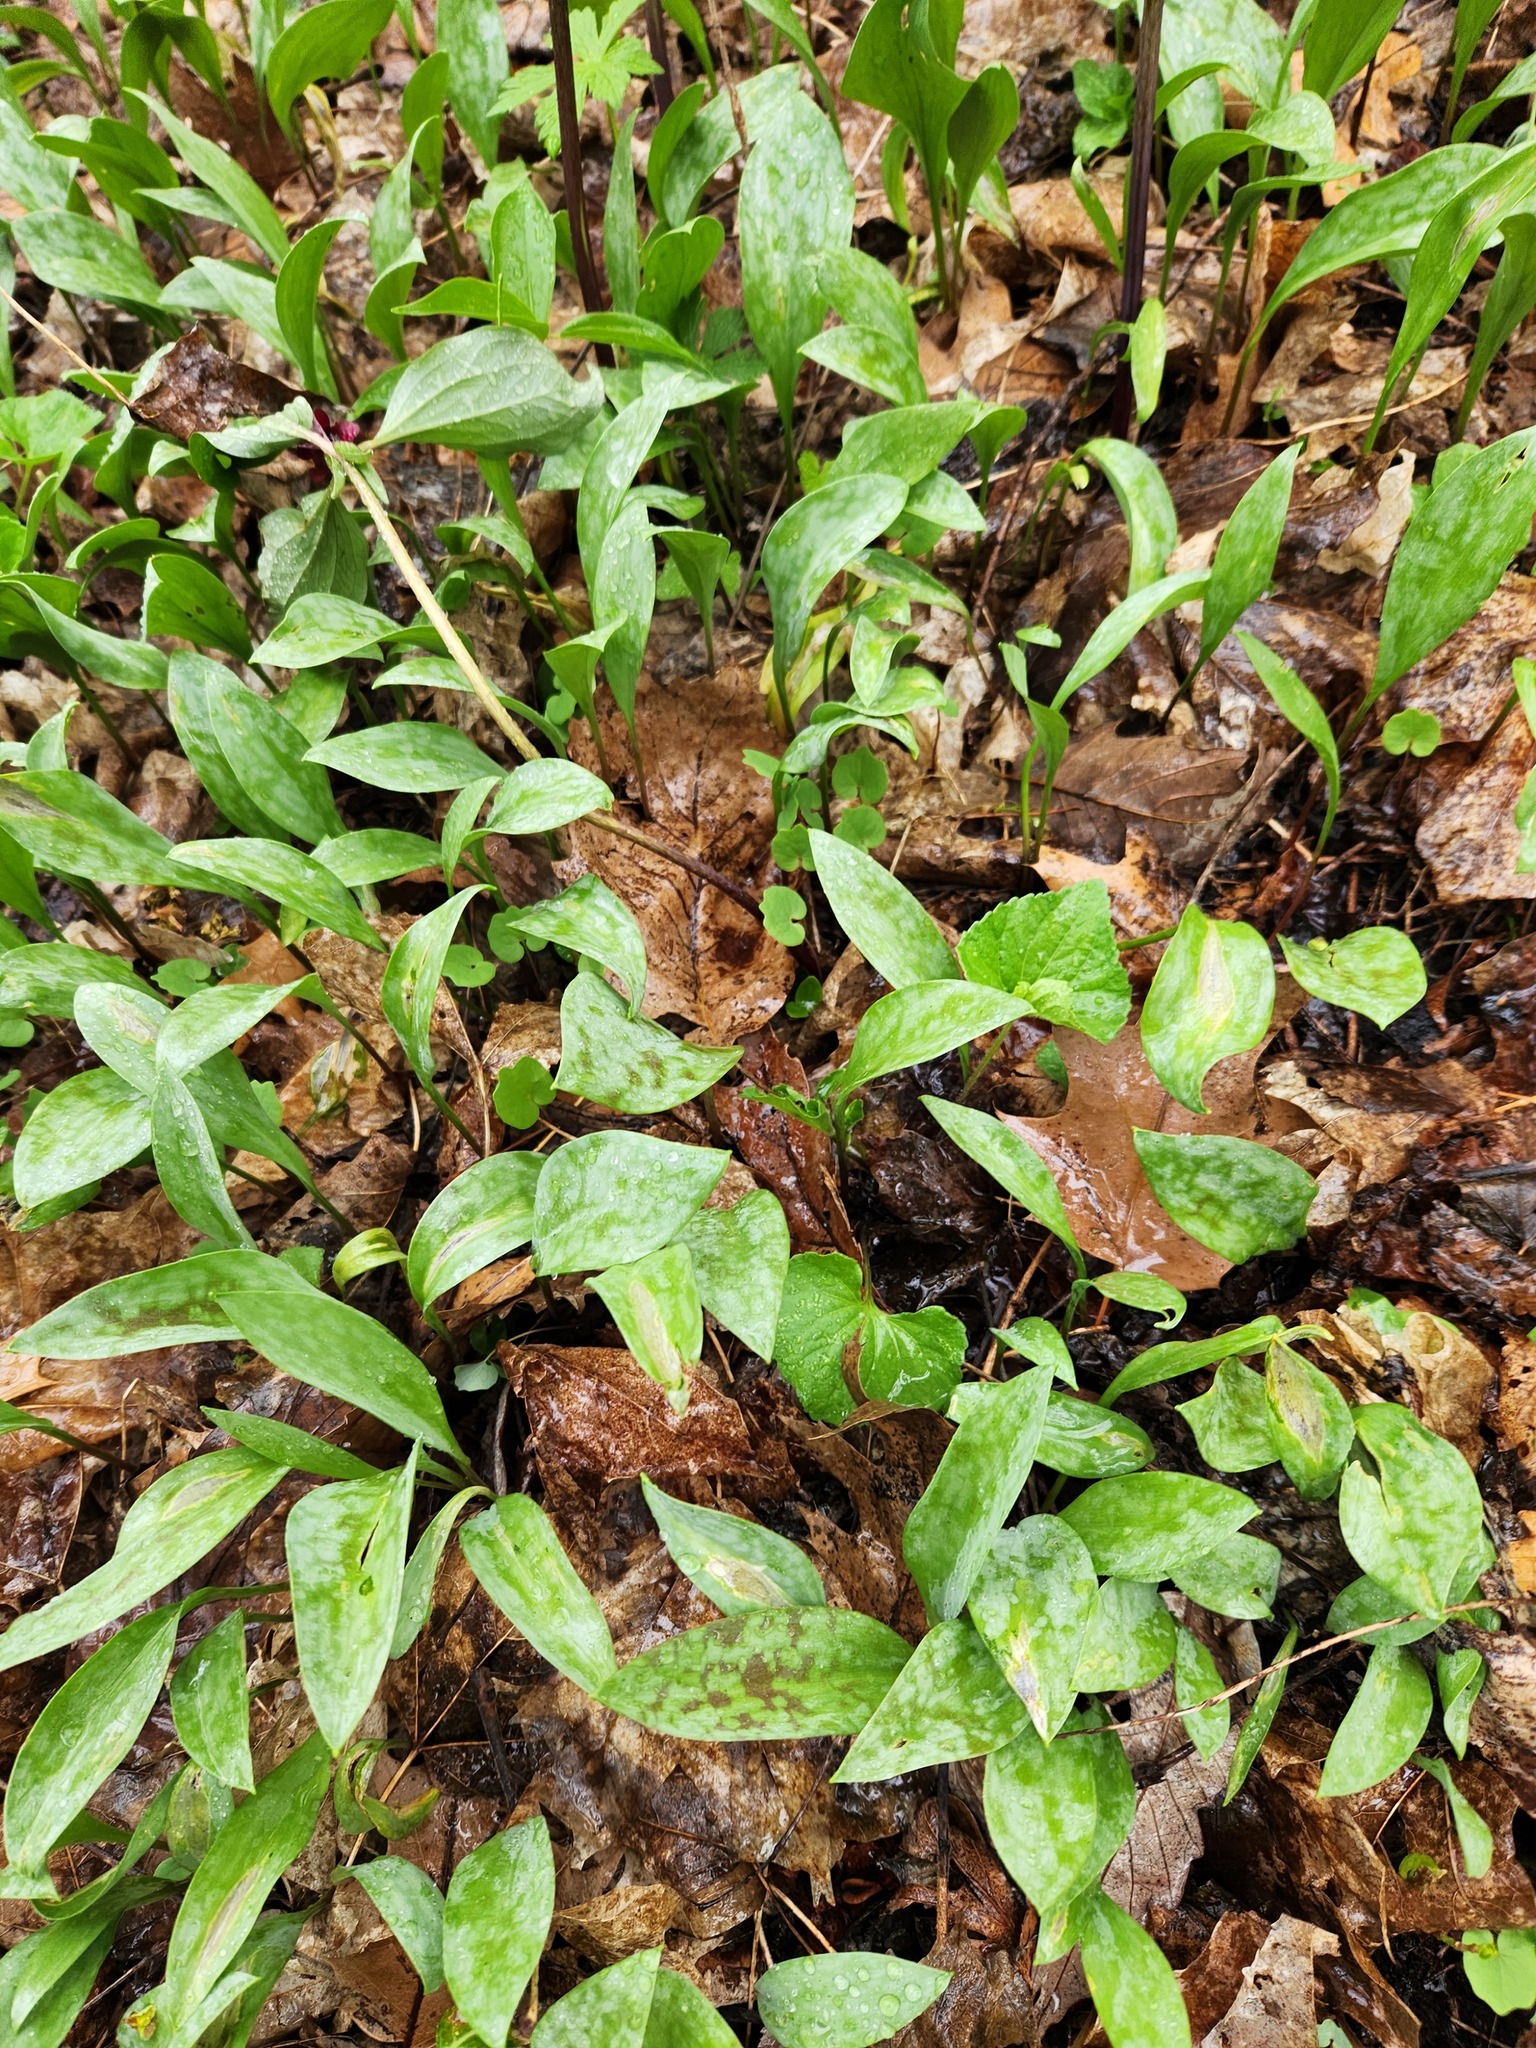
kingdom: Plantae
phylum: Tracheophyta
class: Liliopsida
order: Liliales
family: Liliaceae
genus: Erythronium
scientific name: Erythronium albidum
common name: White trout-lily
